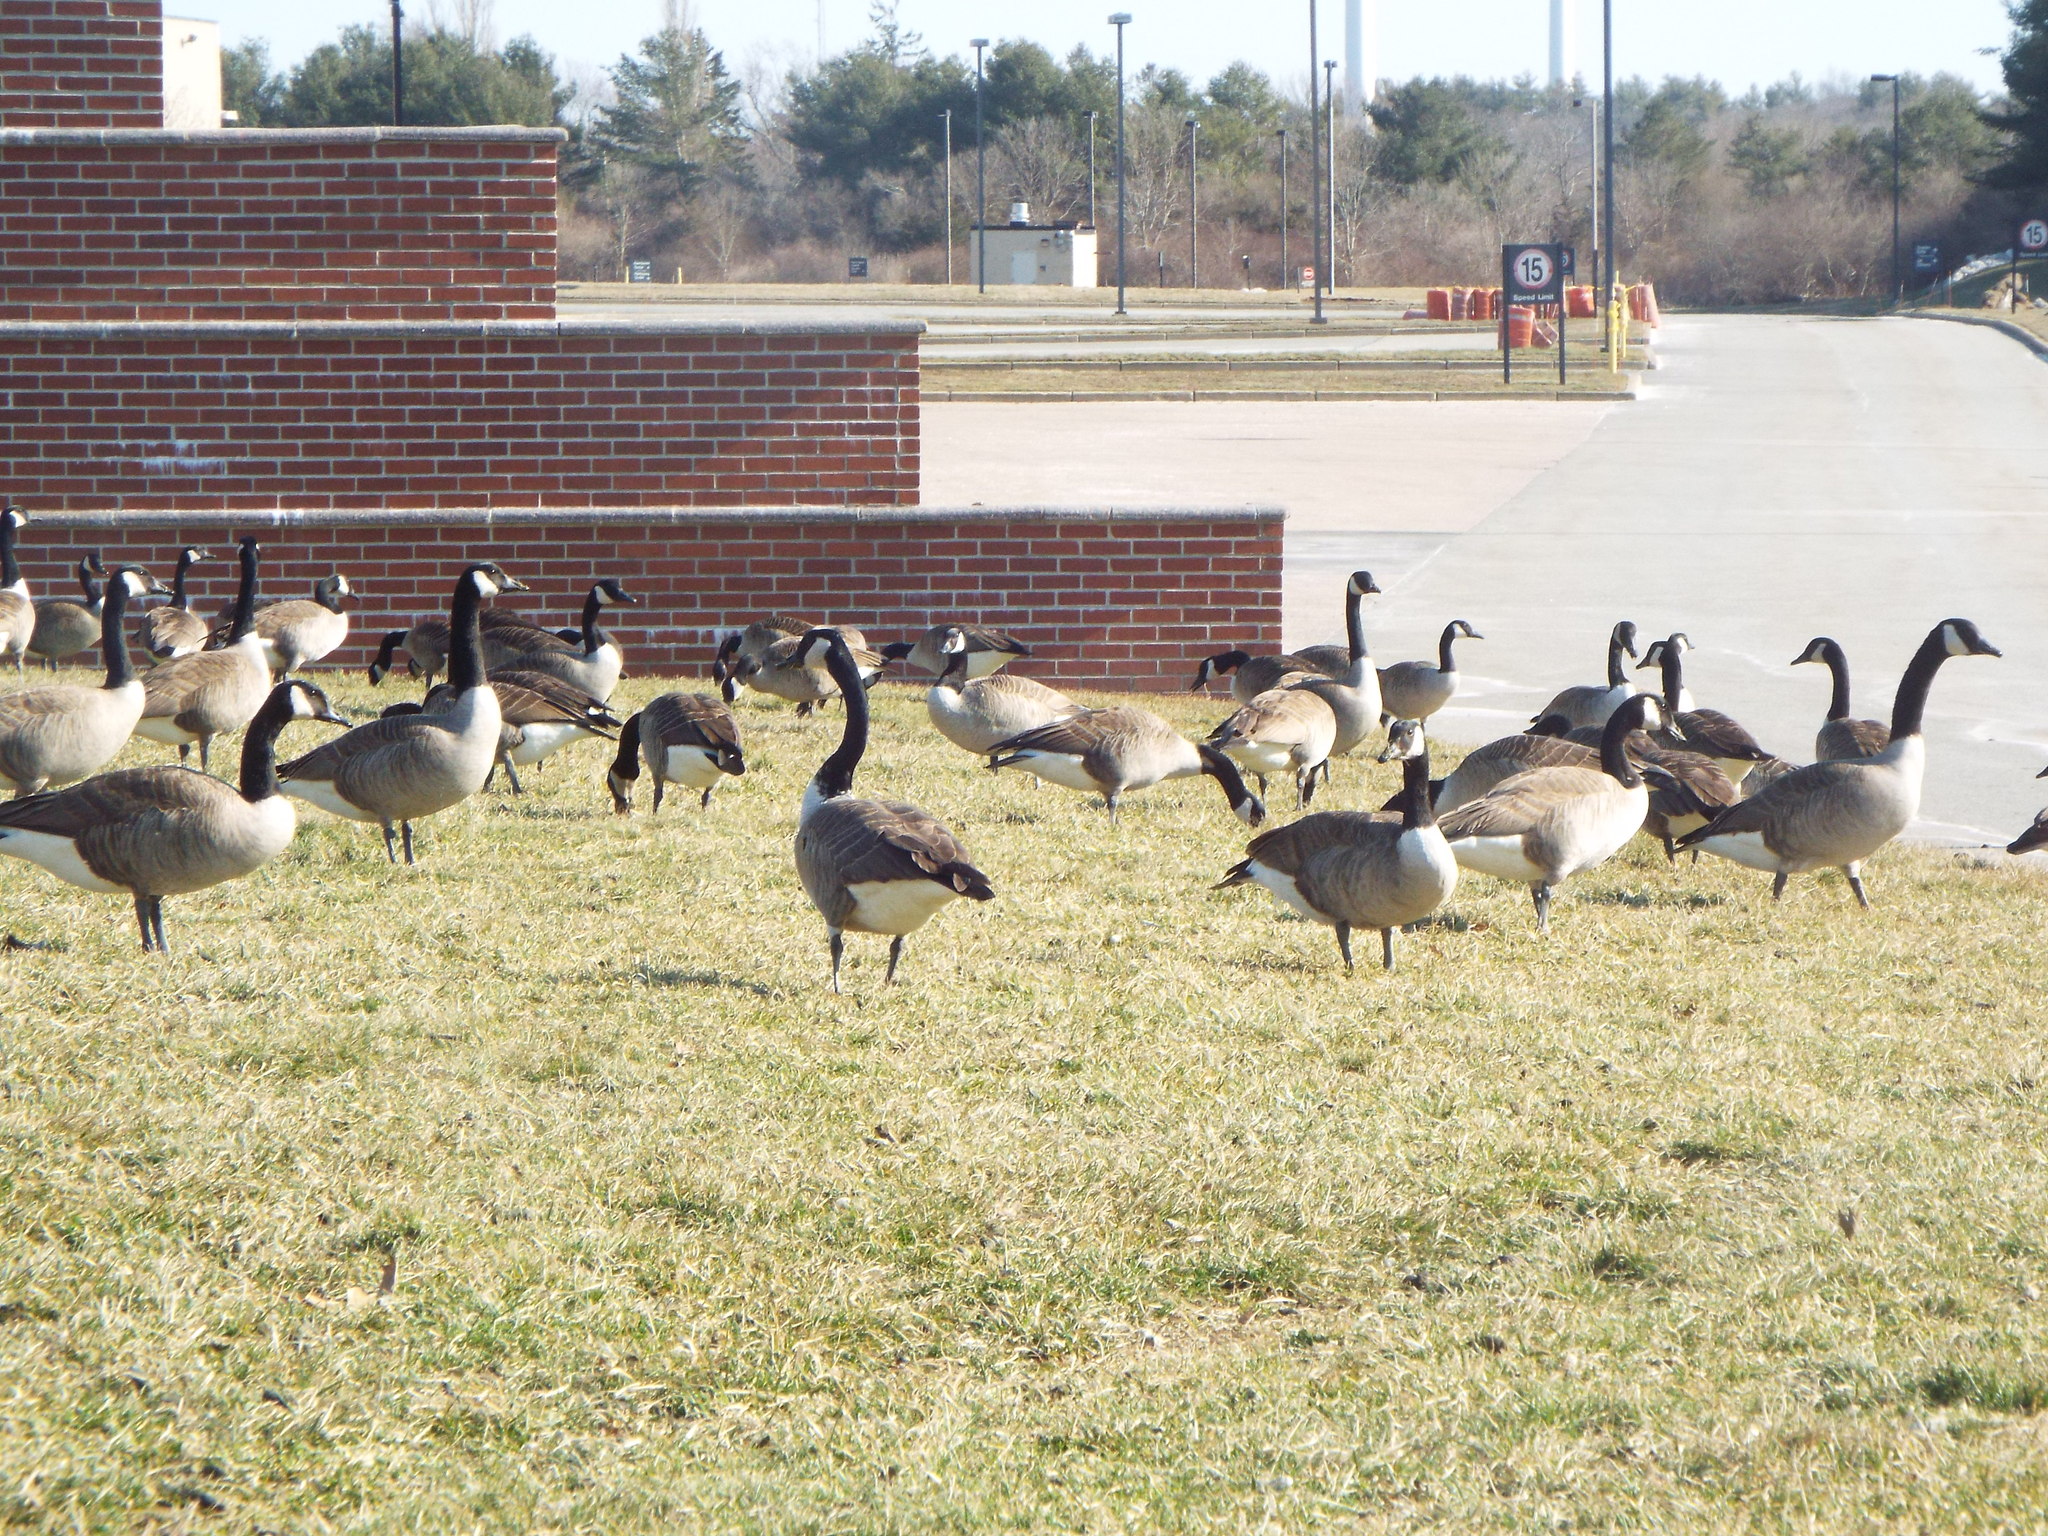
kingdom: Animalia
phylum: Chordata
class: Aves
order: Anseriformes
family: Anatidae
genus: Branta
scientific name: Branta canadensis
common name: Canada goose
